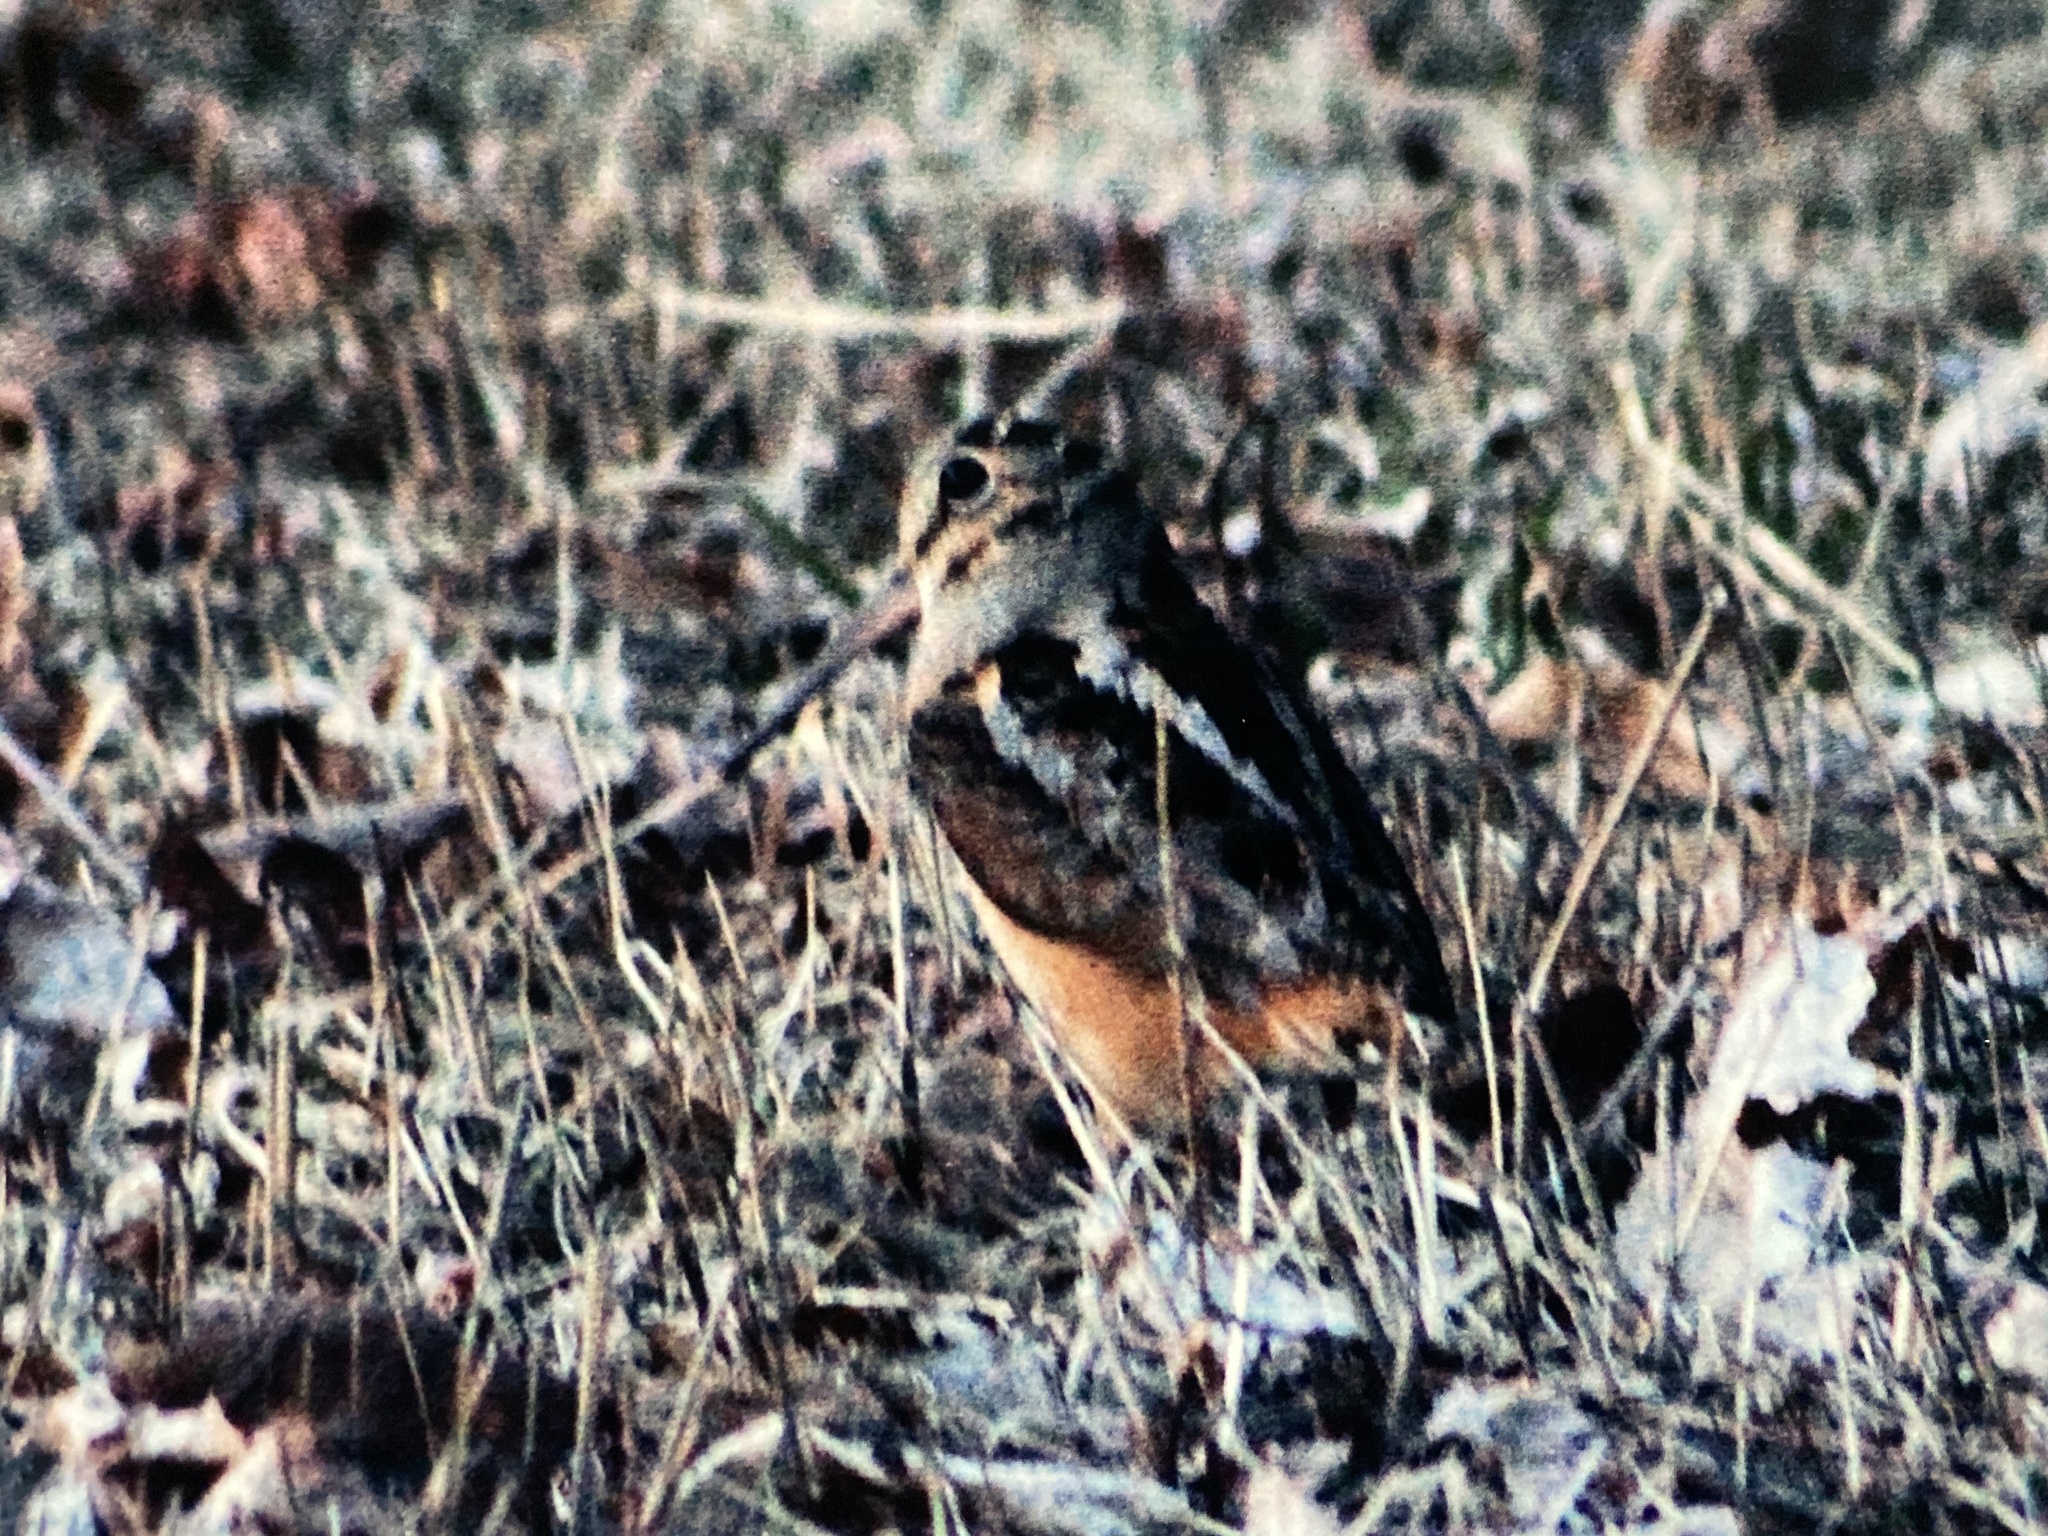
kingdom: Animalia
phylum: Chordata
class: Aves
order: Charadriiformes
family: Scolopacidae
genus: Scolopax
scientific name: Scolopax minor
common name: American woodcock
